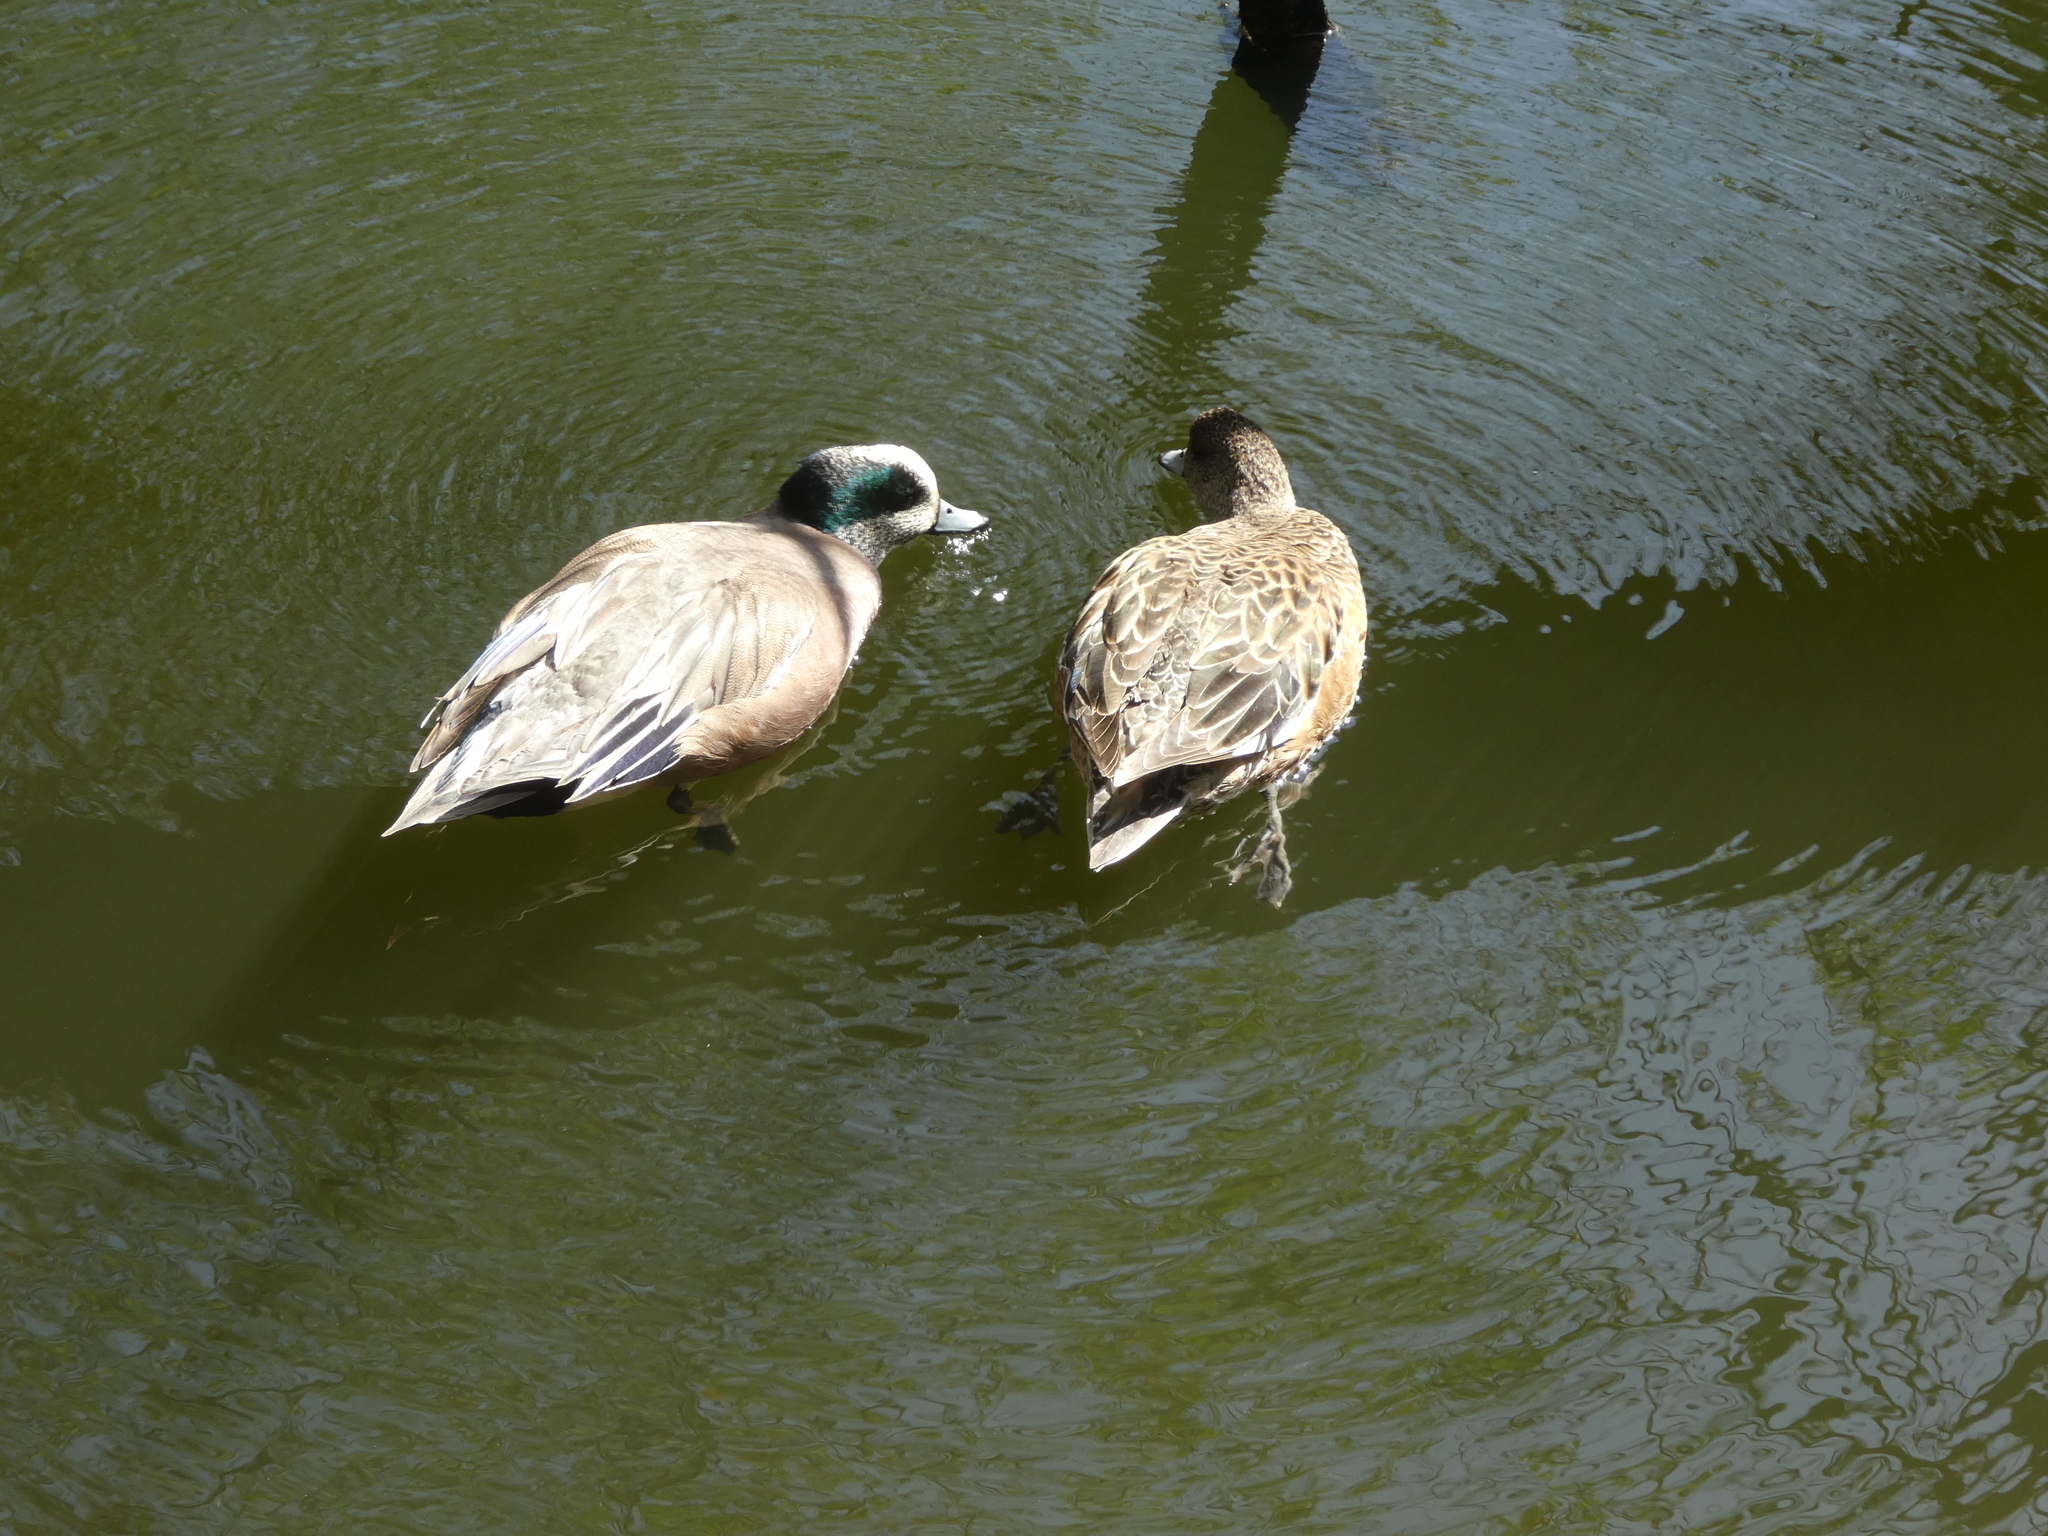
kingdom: Animalia
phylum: Chordata
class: Aves
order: Anseriformes
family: Anatidae
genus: Mareca
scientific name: Mareca americana
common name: American wigeon
